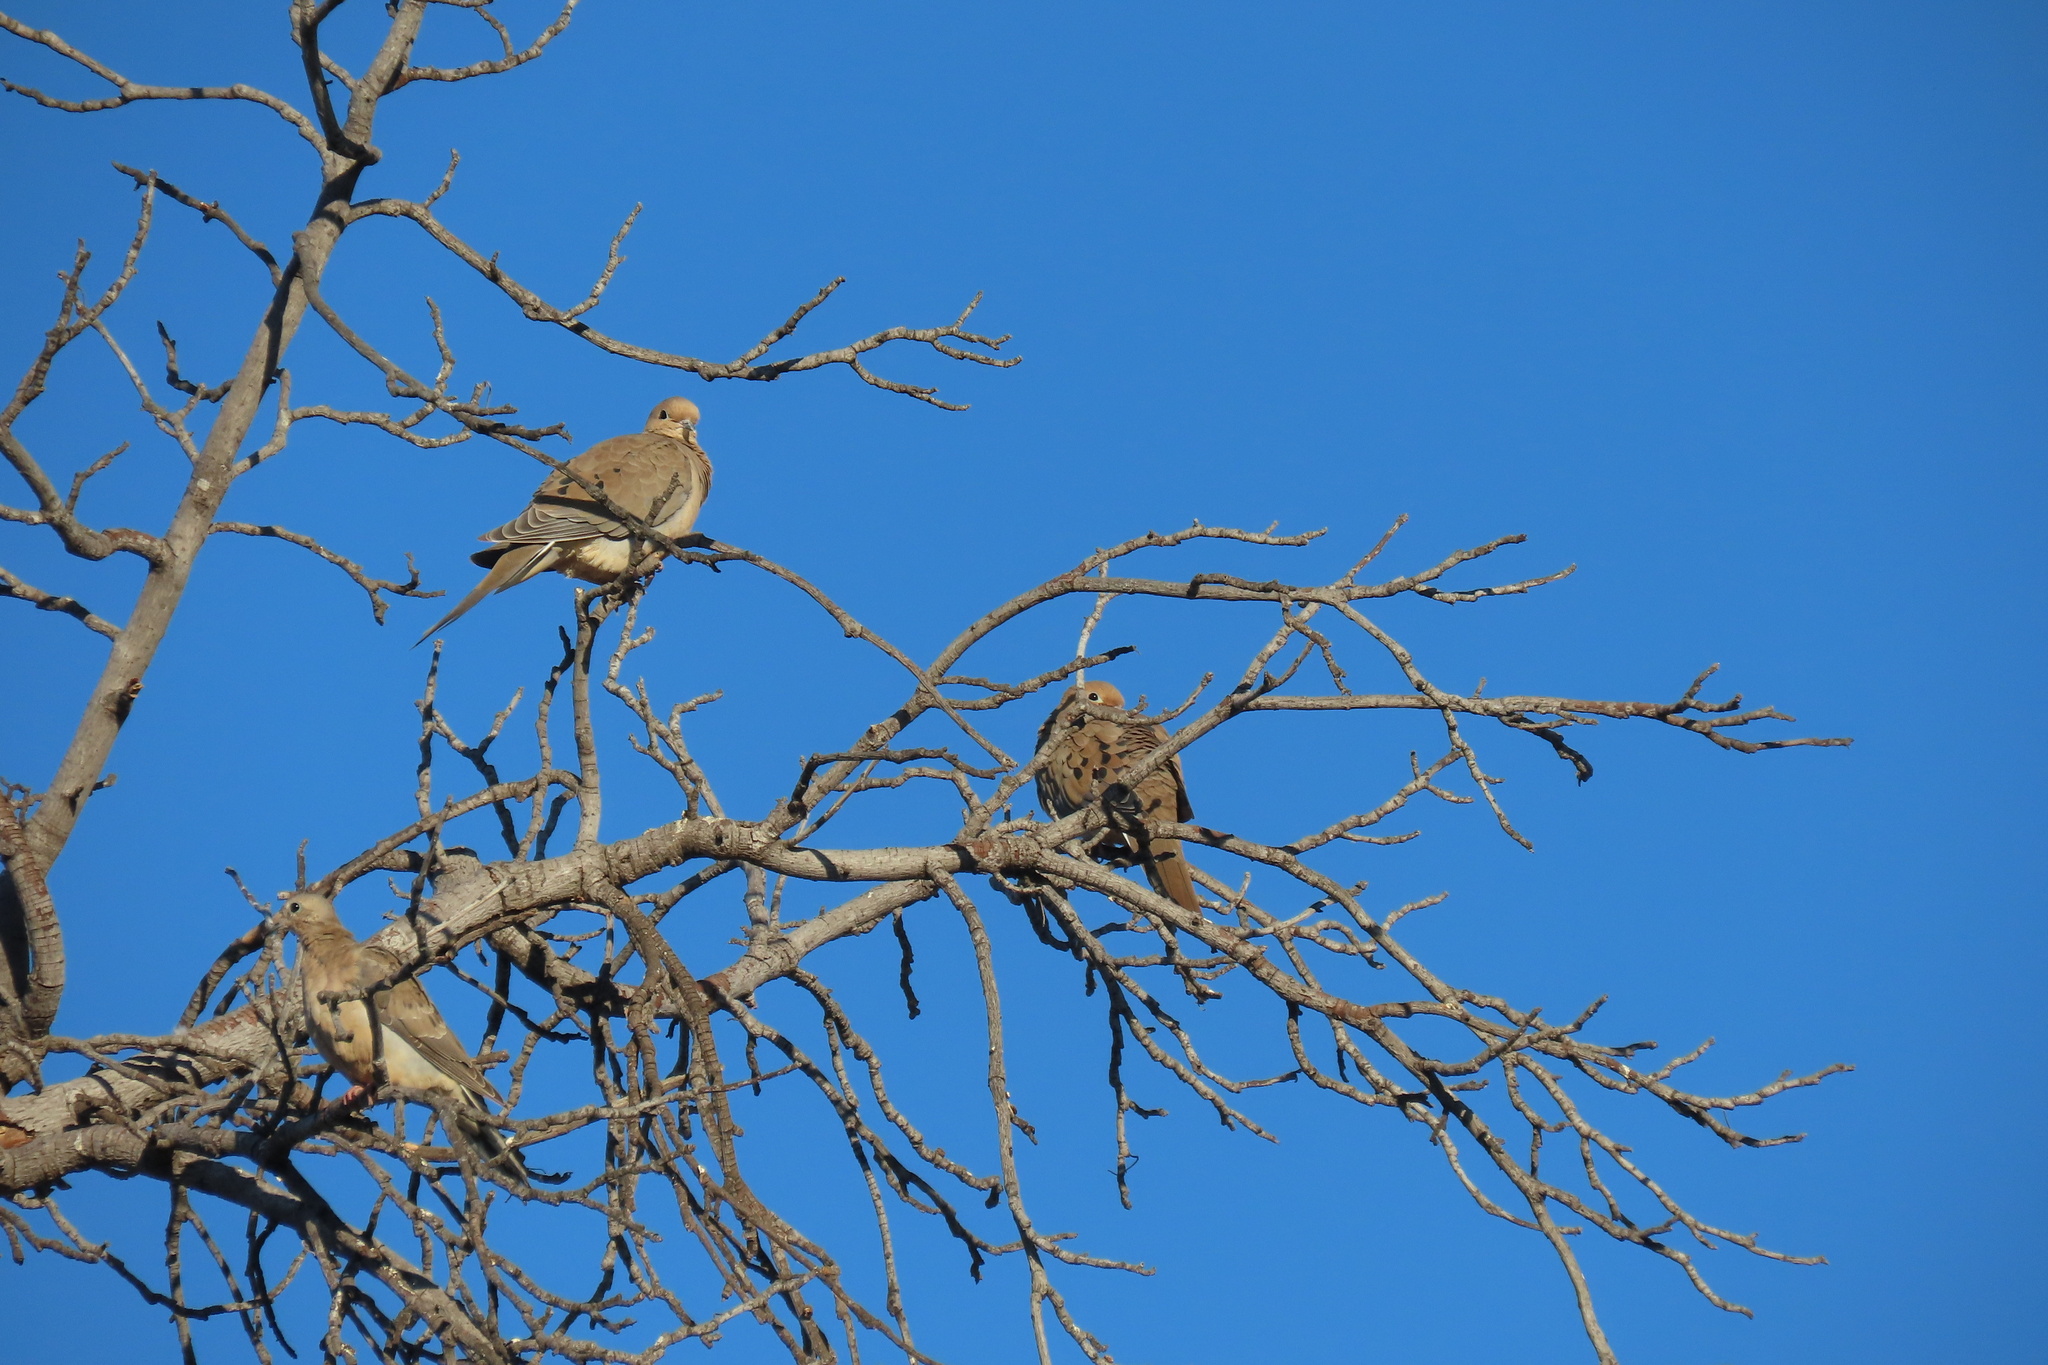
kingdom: Animalia
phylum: Chordata
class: Aves
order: Columbiformes
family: Columbidae
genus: Zenaida
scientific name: Zenaida macroura
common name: Mourning dove
